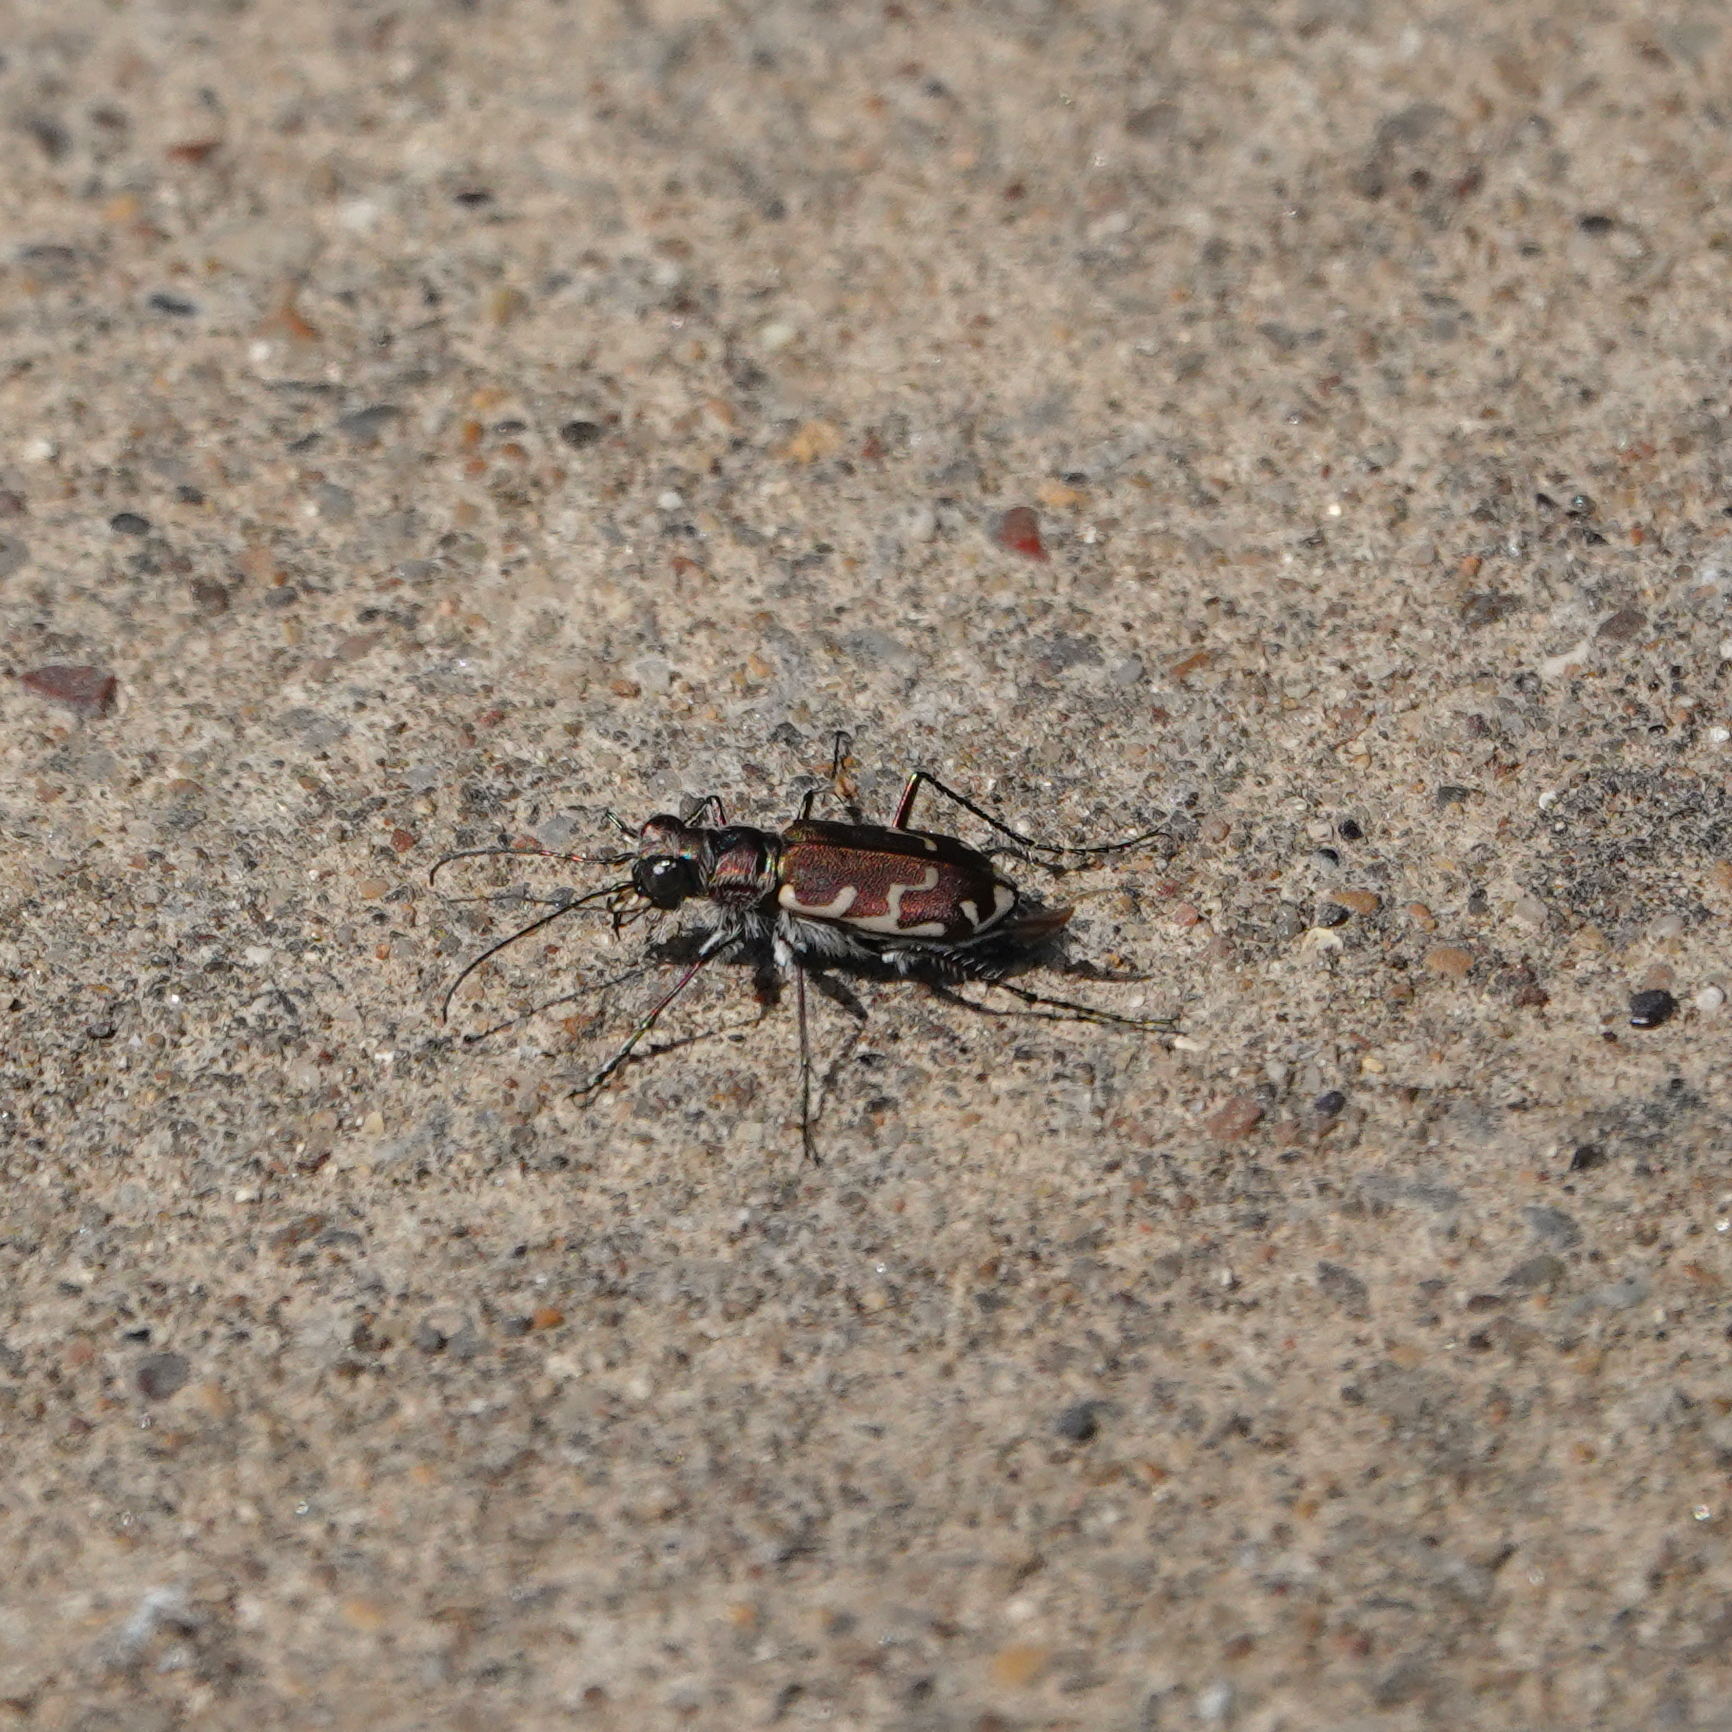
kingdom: Animalia
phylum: Arthropoda
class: Insecta
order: Coleoptera
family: Carabidae
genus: Cicindela
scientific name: Cicindela repanda
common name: Bronzed tiger beetle
